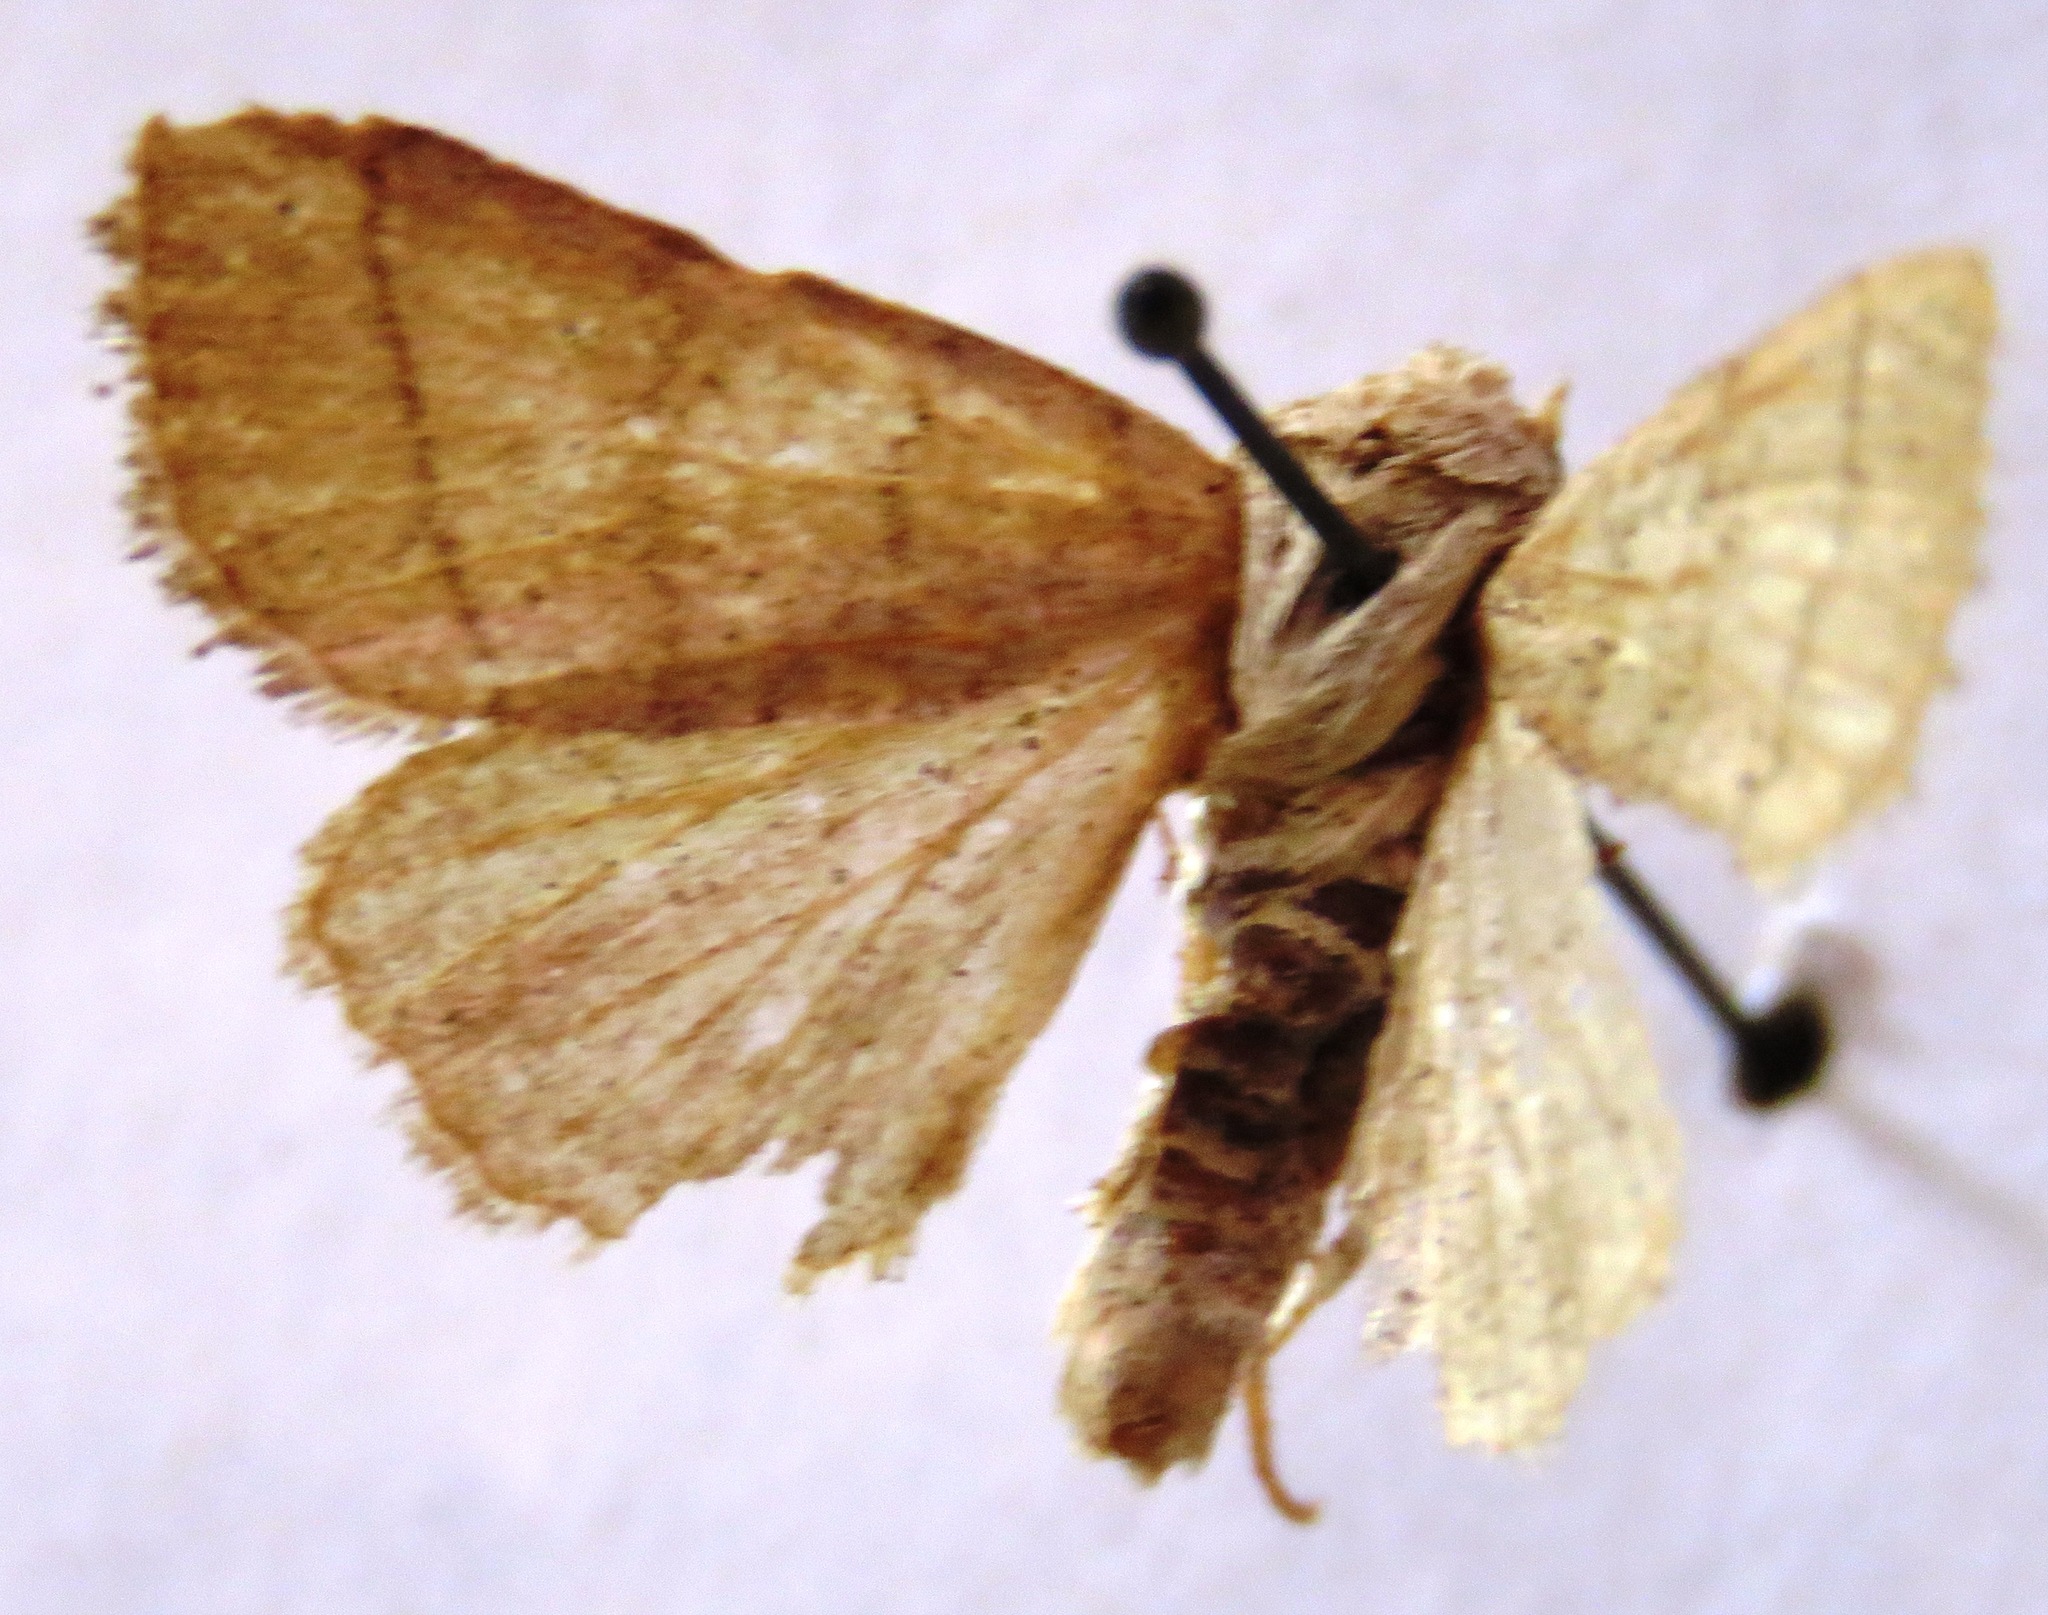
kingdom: Animalia
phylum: Arthropoda
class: Insecta
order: Lepidoptera
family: Noctuidae
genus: Charanyca
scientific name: Charanyca trigrammica
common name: Treble lines
